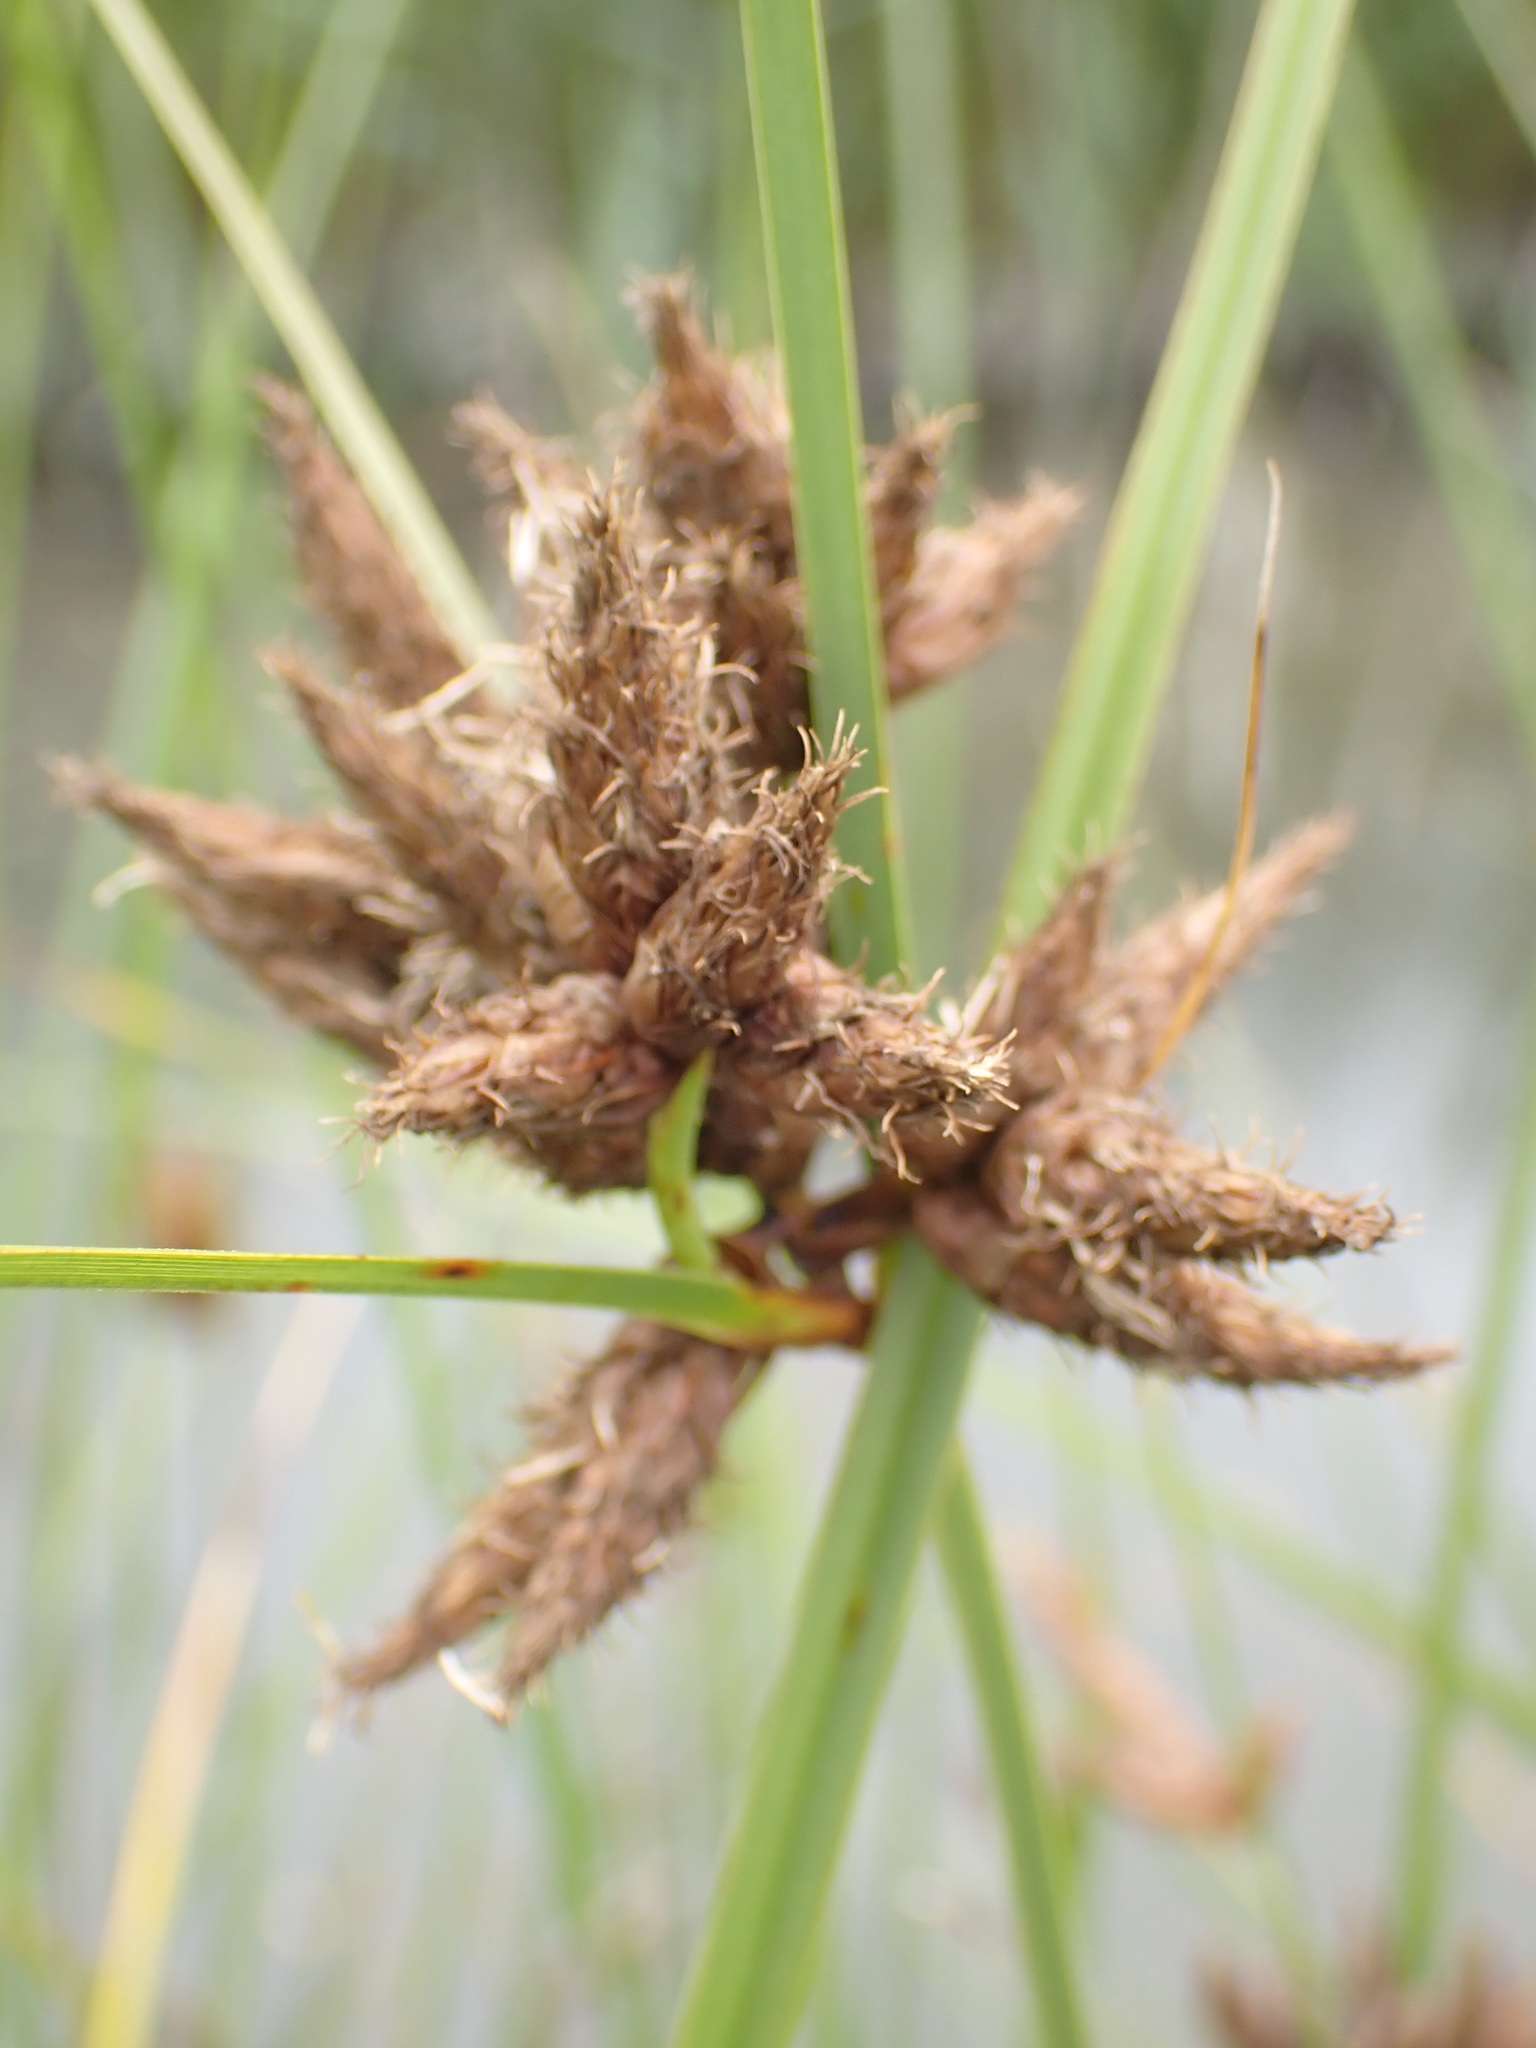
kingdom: Plantae
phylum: Tracheophyta
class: Liliopsida
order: Poales
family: Cyperaceae
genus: Bolboschoenus
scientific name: Bolboschoenus maritimus
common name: Sea club-rush
